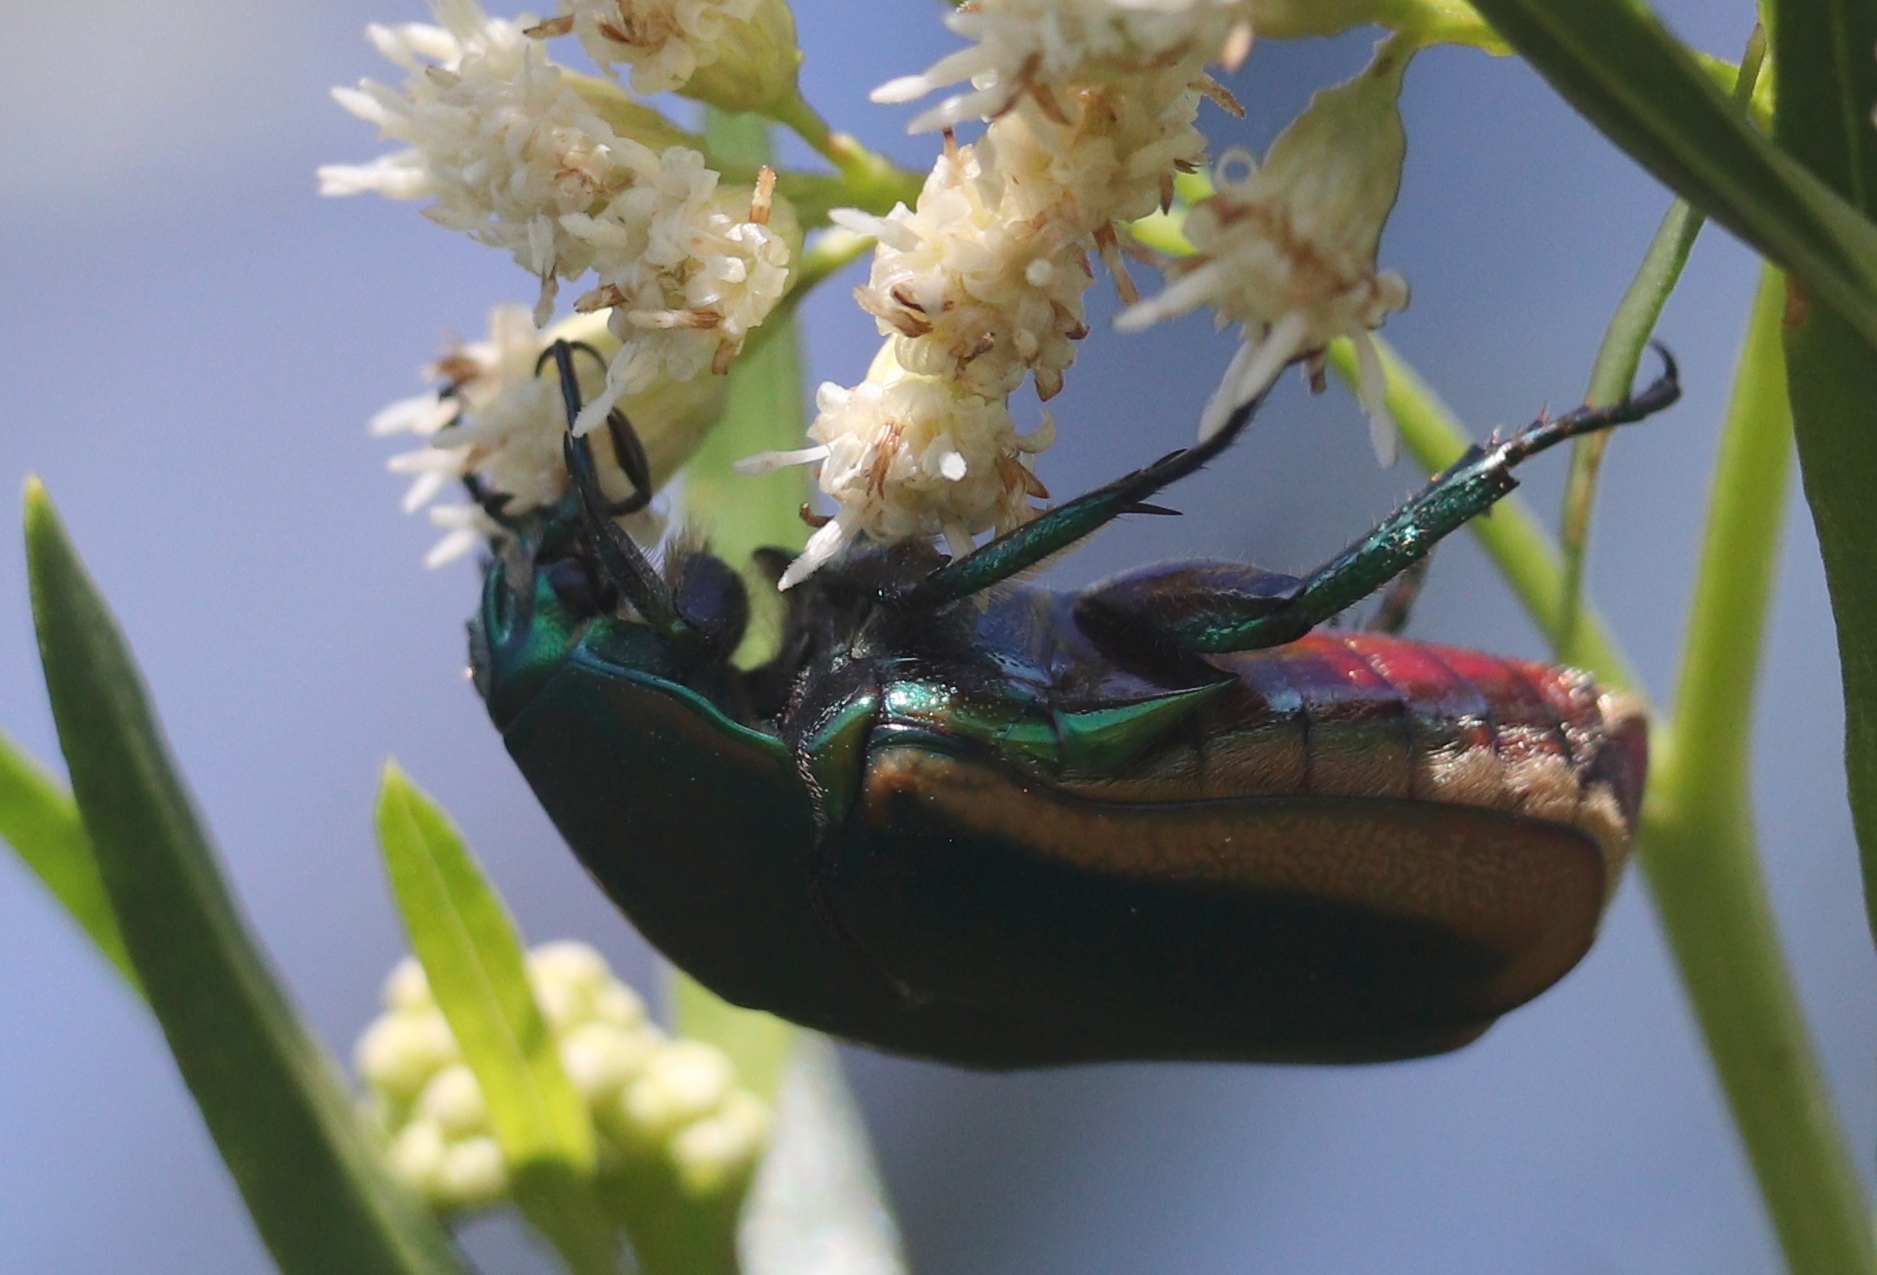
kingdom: Animalia
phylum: Arthropoda
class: Insecta
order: Coleoptera
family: Scarabaeidae
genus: Cotinis
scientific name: Cotinis mutabilis
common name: Figeater beetle
